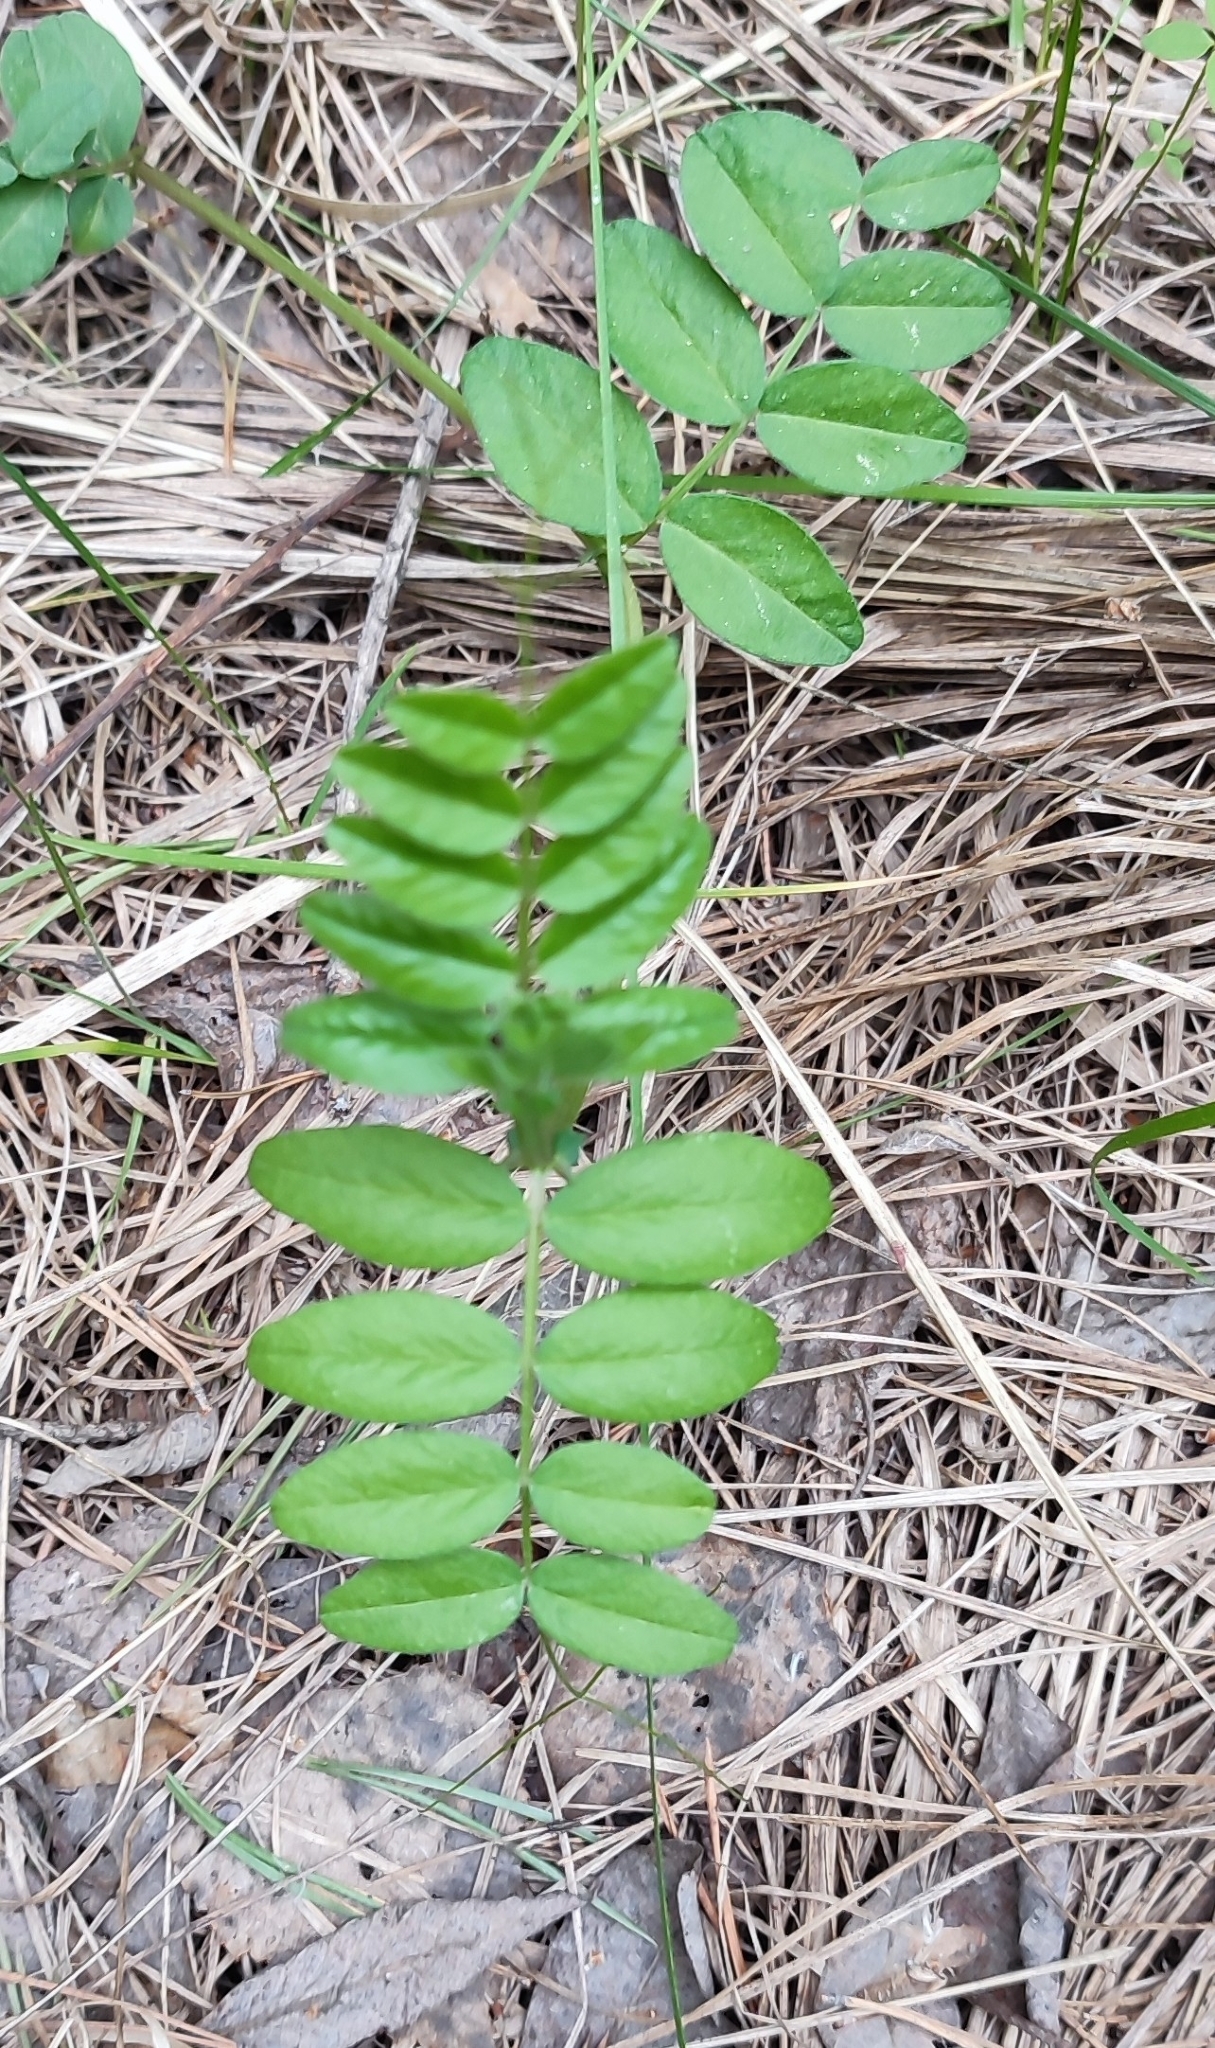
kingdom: Plantae
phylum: Tracheophyta
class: Magnoliopsida
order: Fabales
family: Fabaceae
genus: Vicia
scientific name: Vicia sepium
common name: Bush vetch
